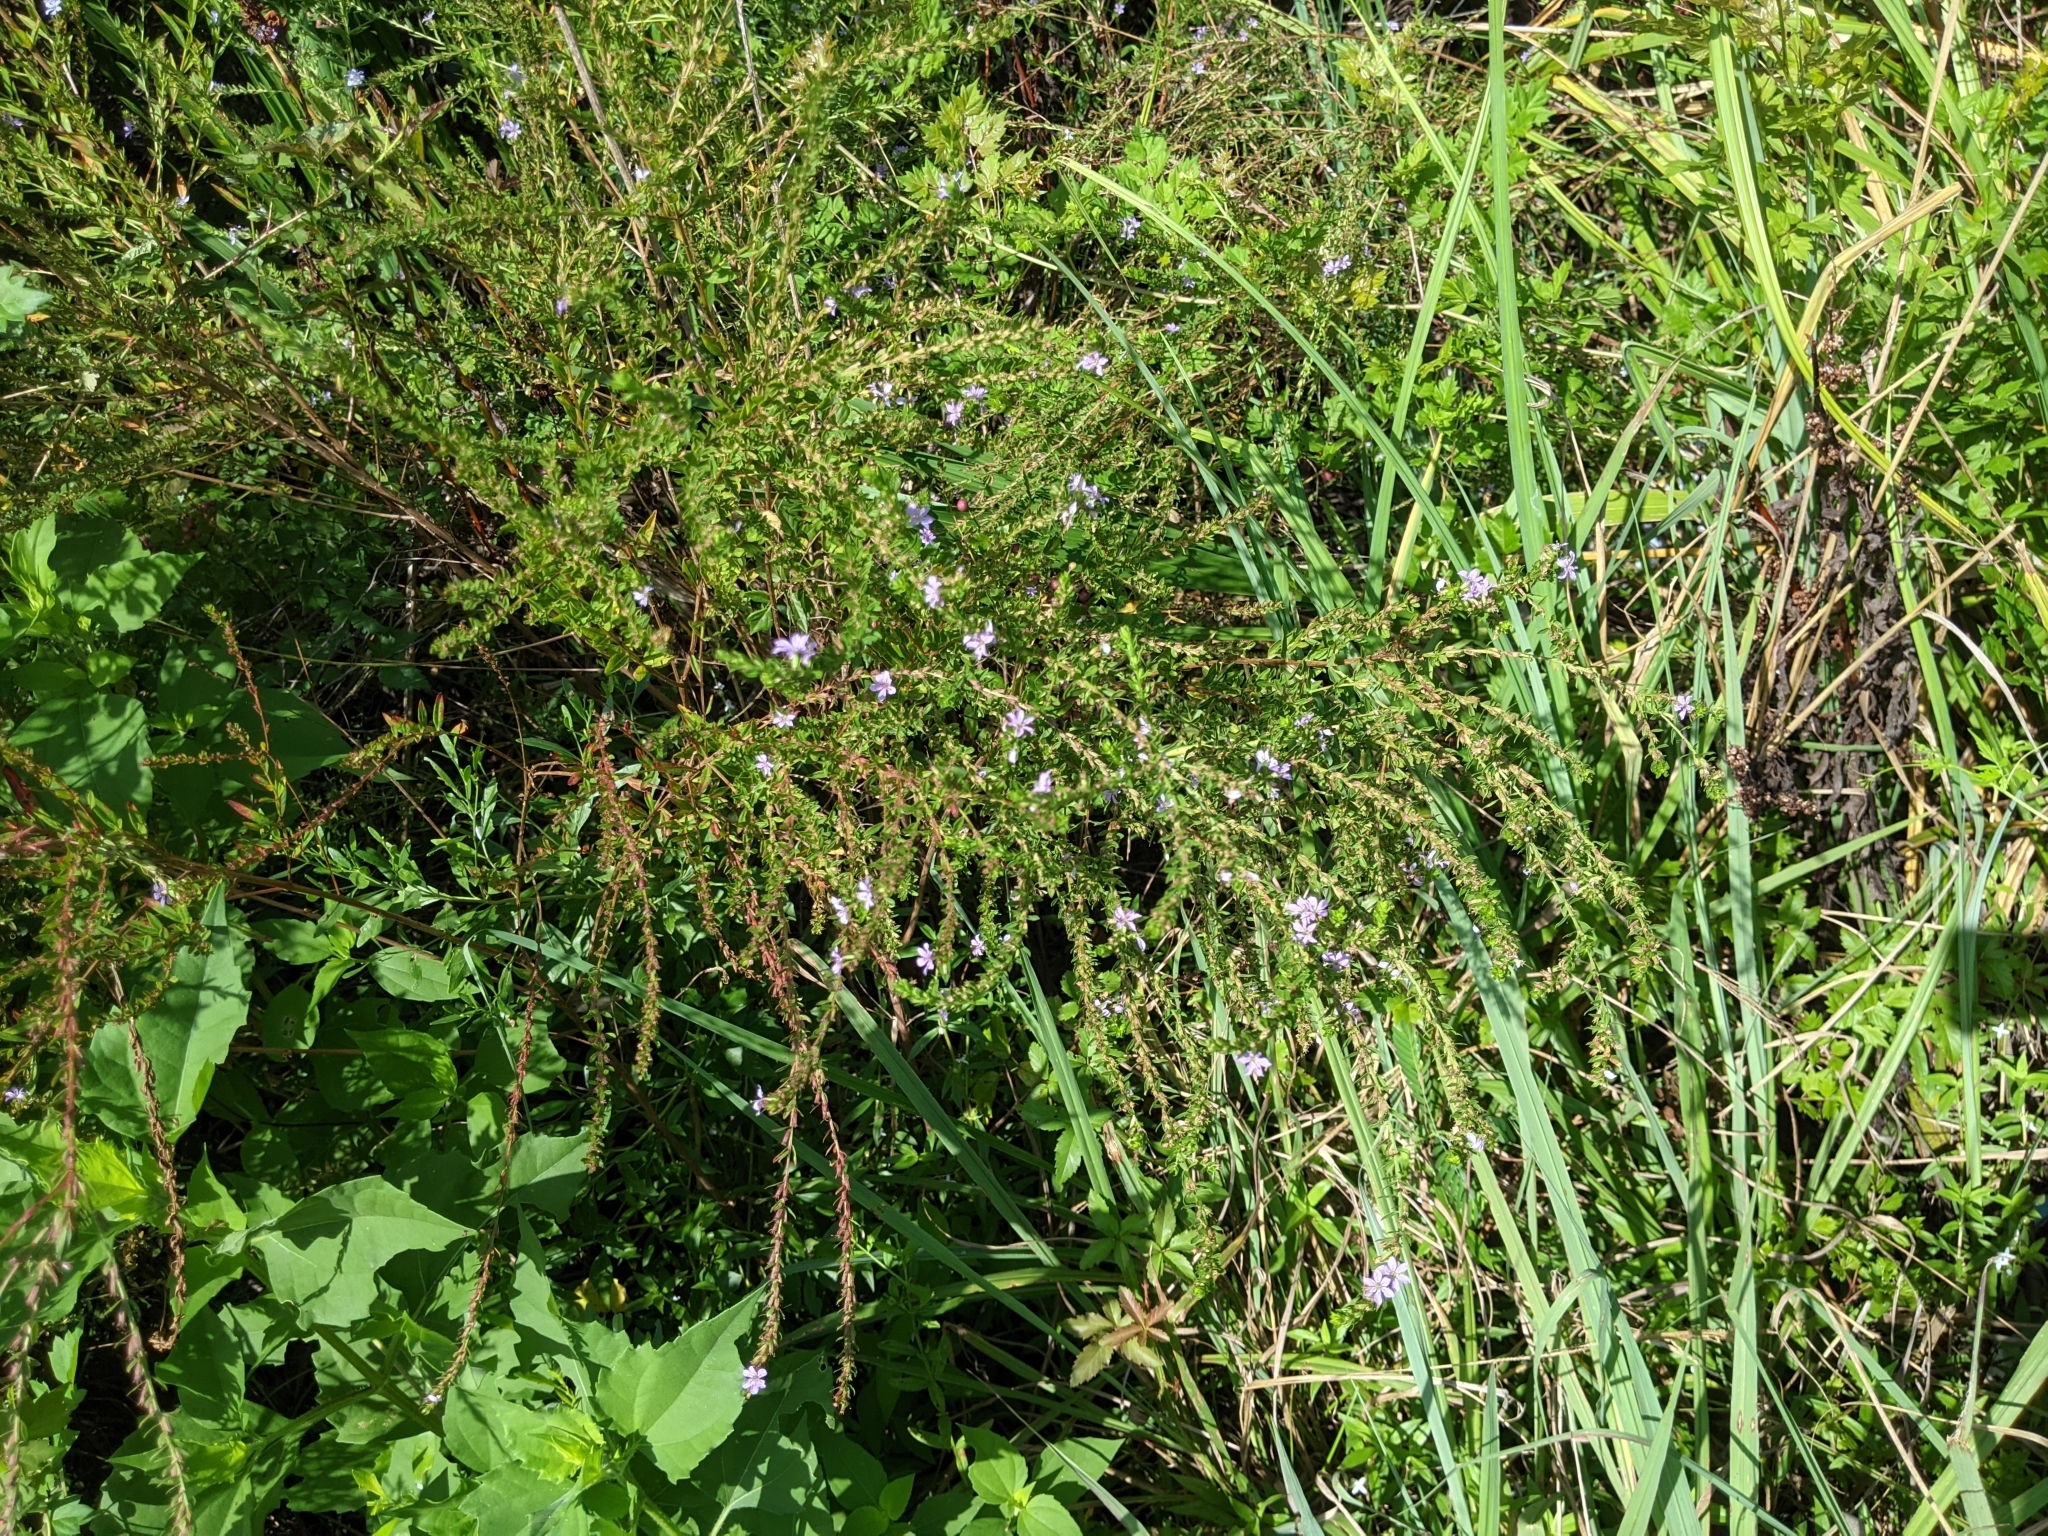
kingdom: Plantae
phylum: Tracheophyta
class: Magnoliopsida
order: Myrtales
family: Lythraceae
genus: Lythrum
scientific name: Lythrum alatum
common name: Winged loosestrife
